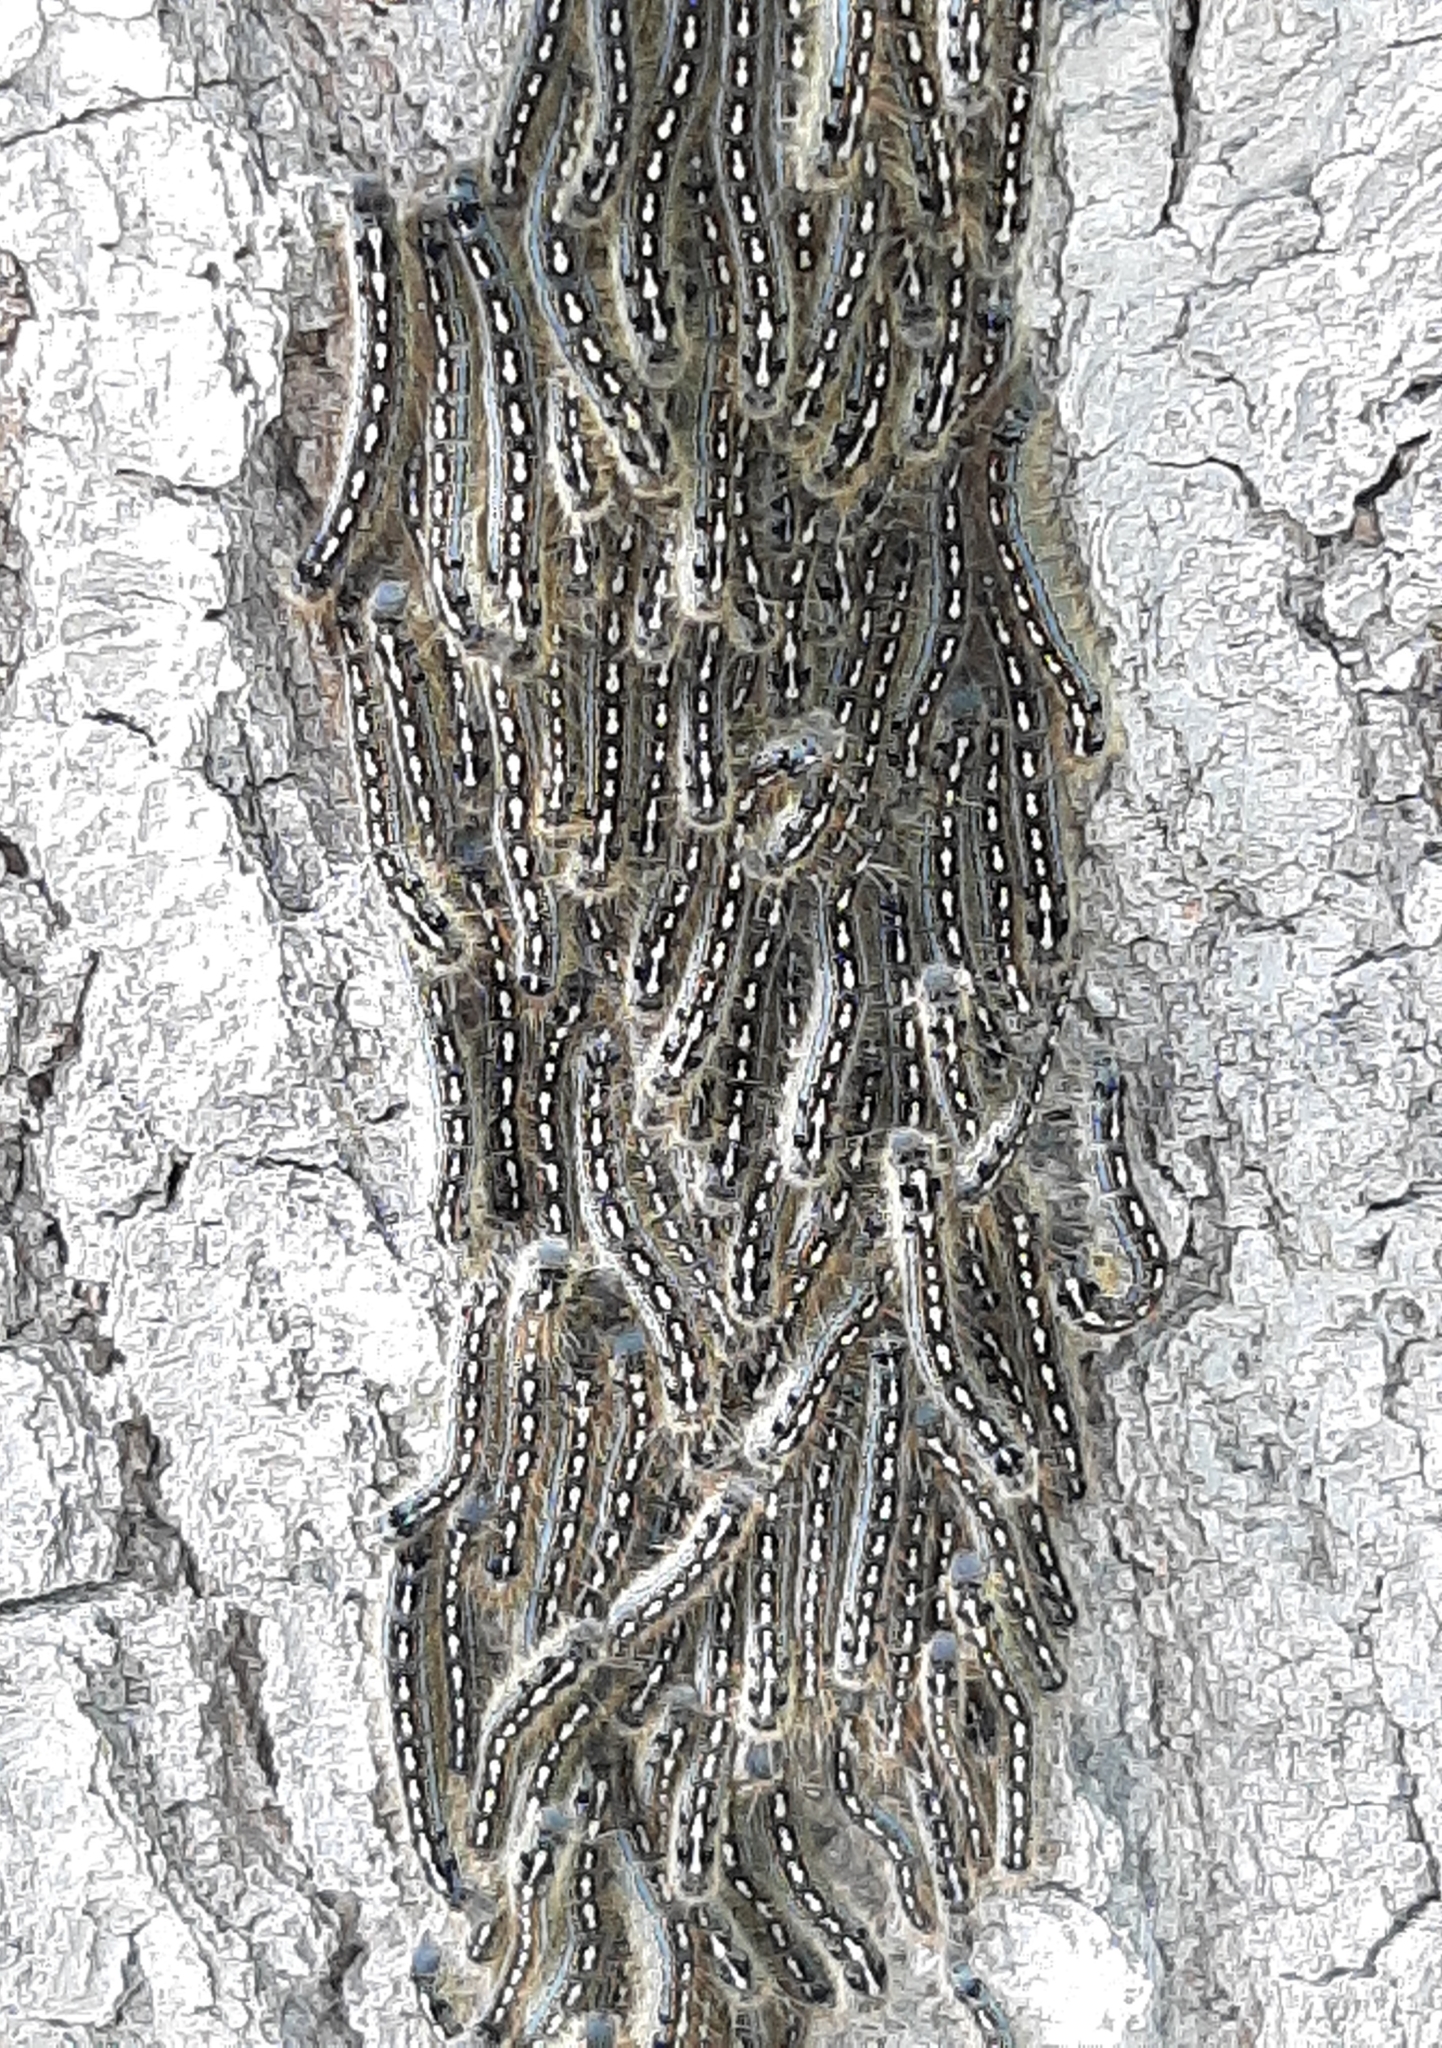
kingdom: Animalia
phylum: Arthropoda
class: Insecta
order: Lepidoptera
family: Lasiocampidae
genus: Malacosoma
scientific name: Malacosoma disstria
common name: Forest tent caterpillar
